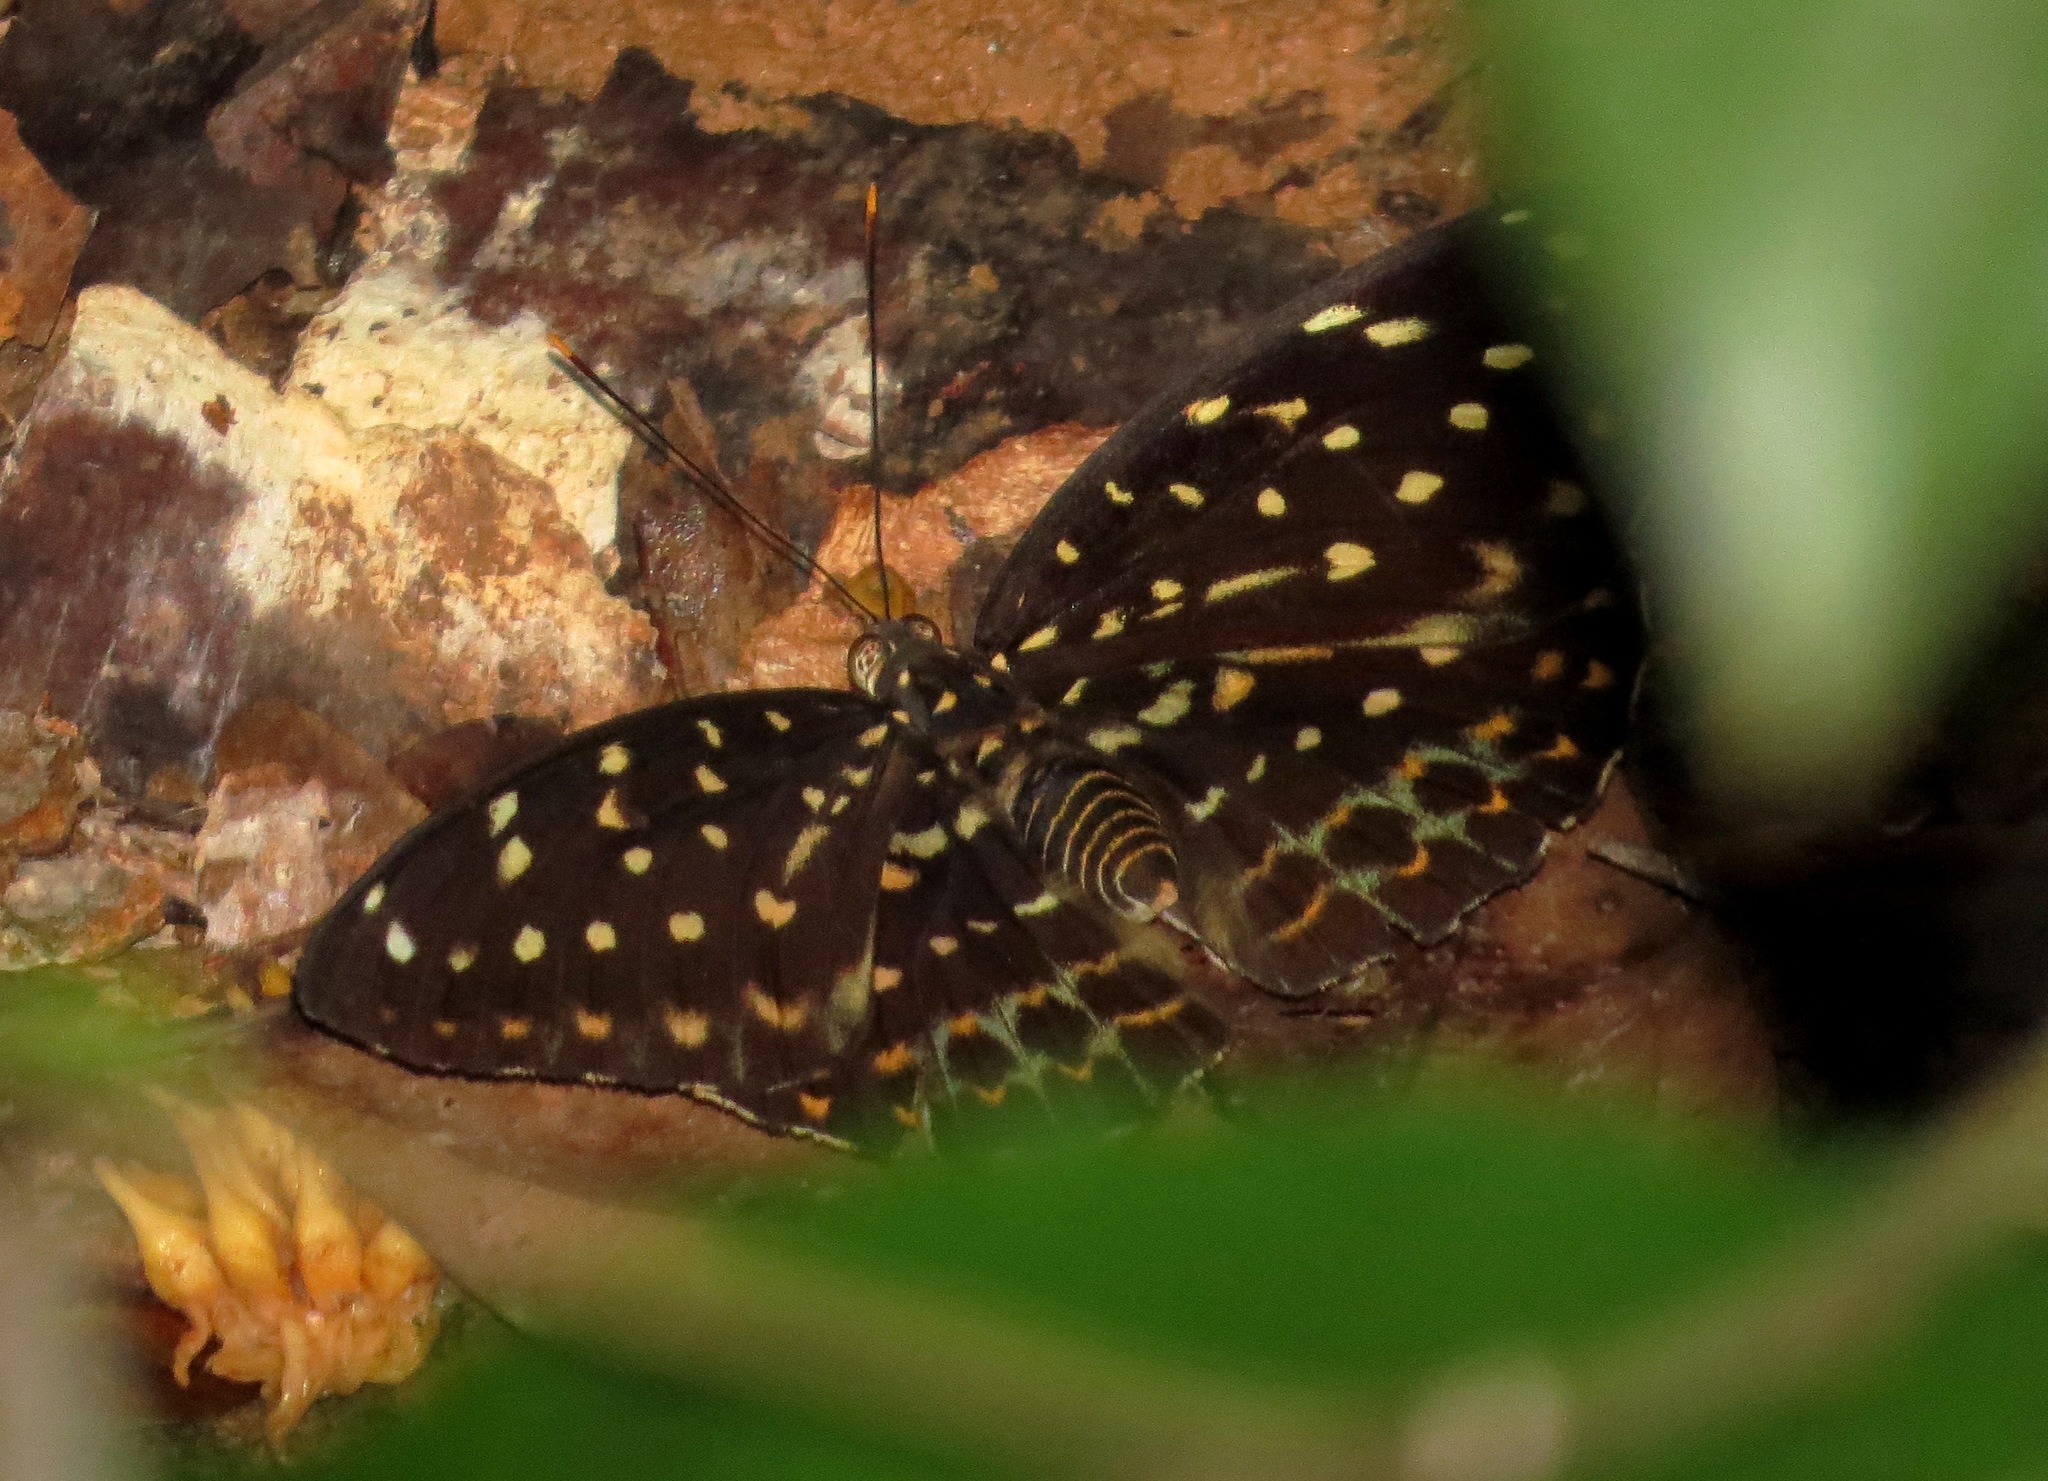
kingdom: Animalia
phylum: Arthropoda
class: Insecta
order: Lepidoptera
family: Nymphalidae
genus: Lexias
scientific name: Lexias pardalis
